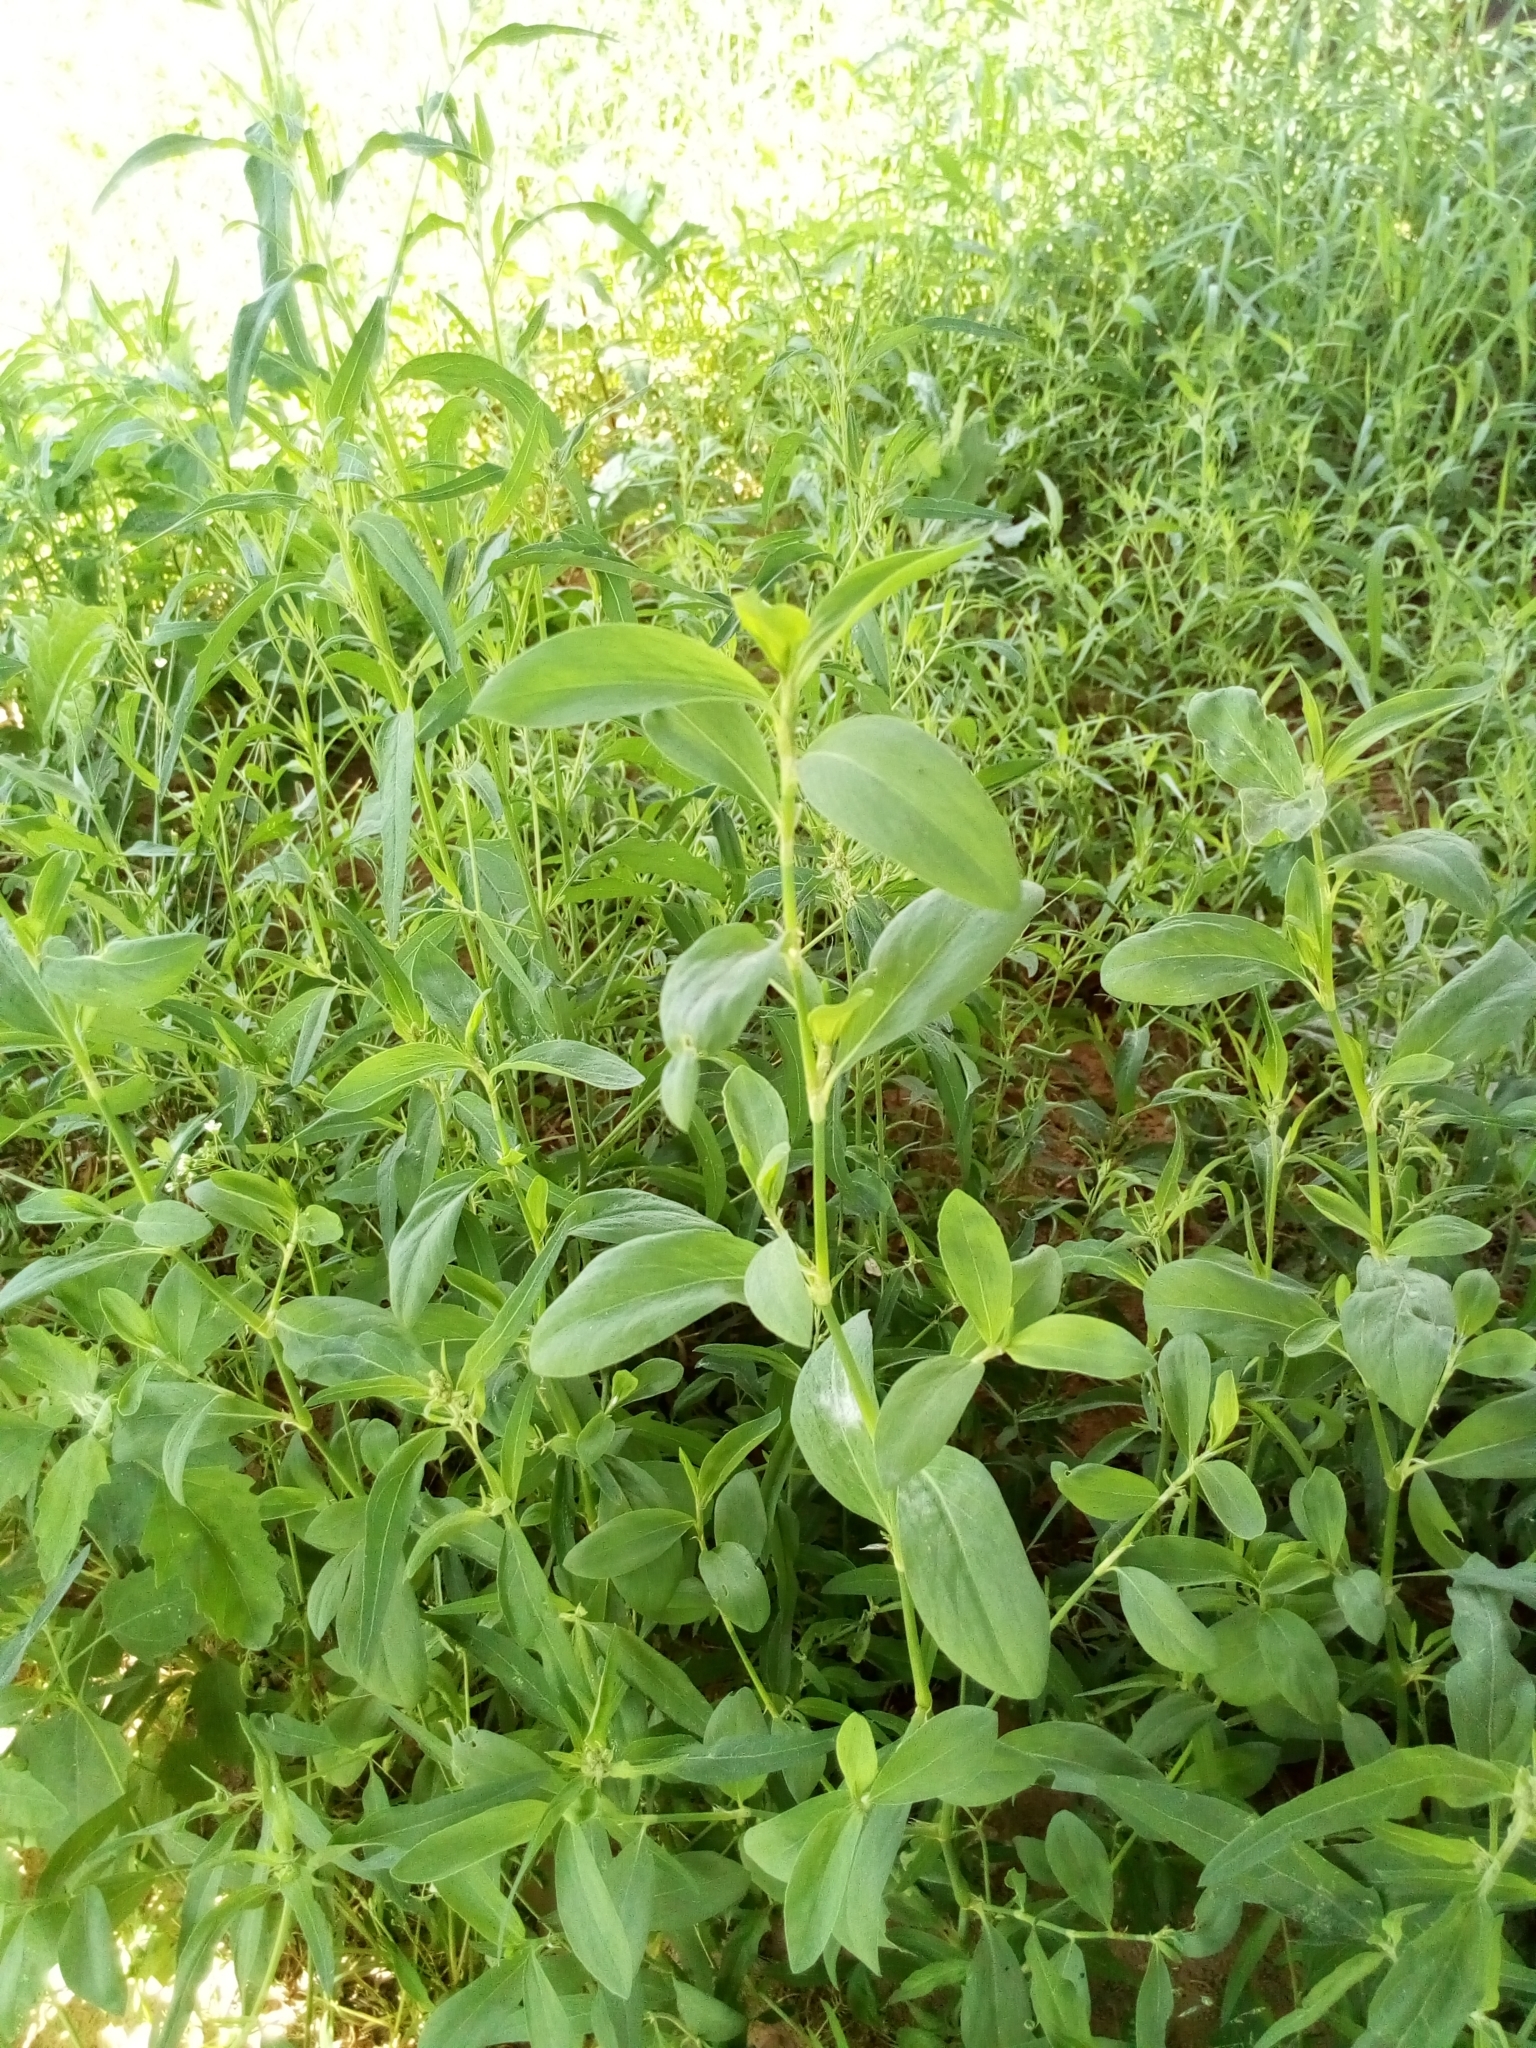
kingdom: Plantae
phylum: Tracheophyta
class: Magnoliopsida
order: Caryophyllales
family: Polygonaceae
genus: Polygonum
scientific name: Polygonum aviculare
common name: Prostrate knotweed
